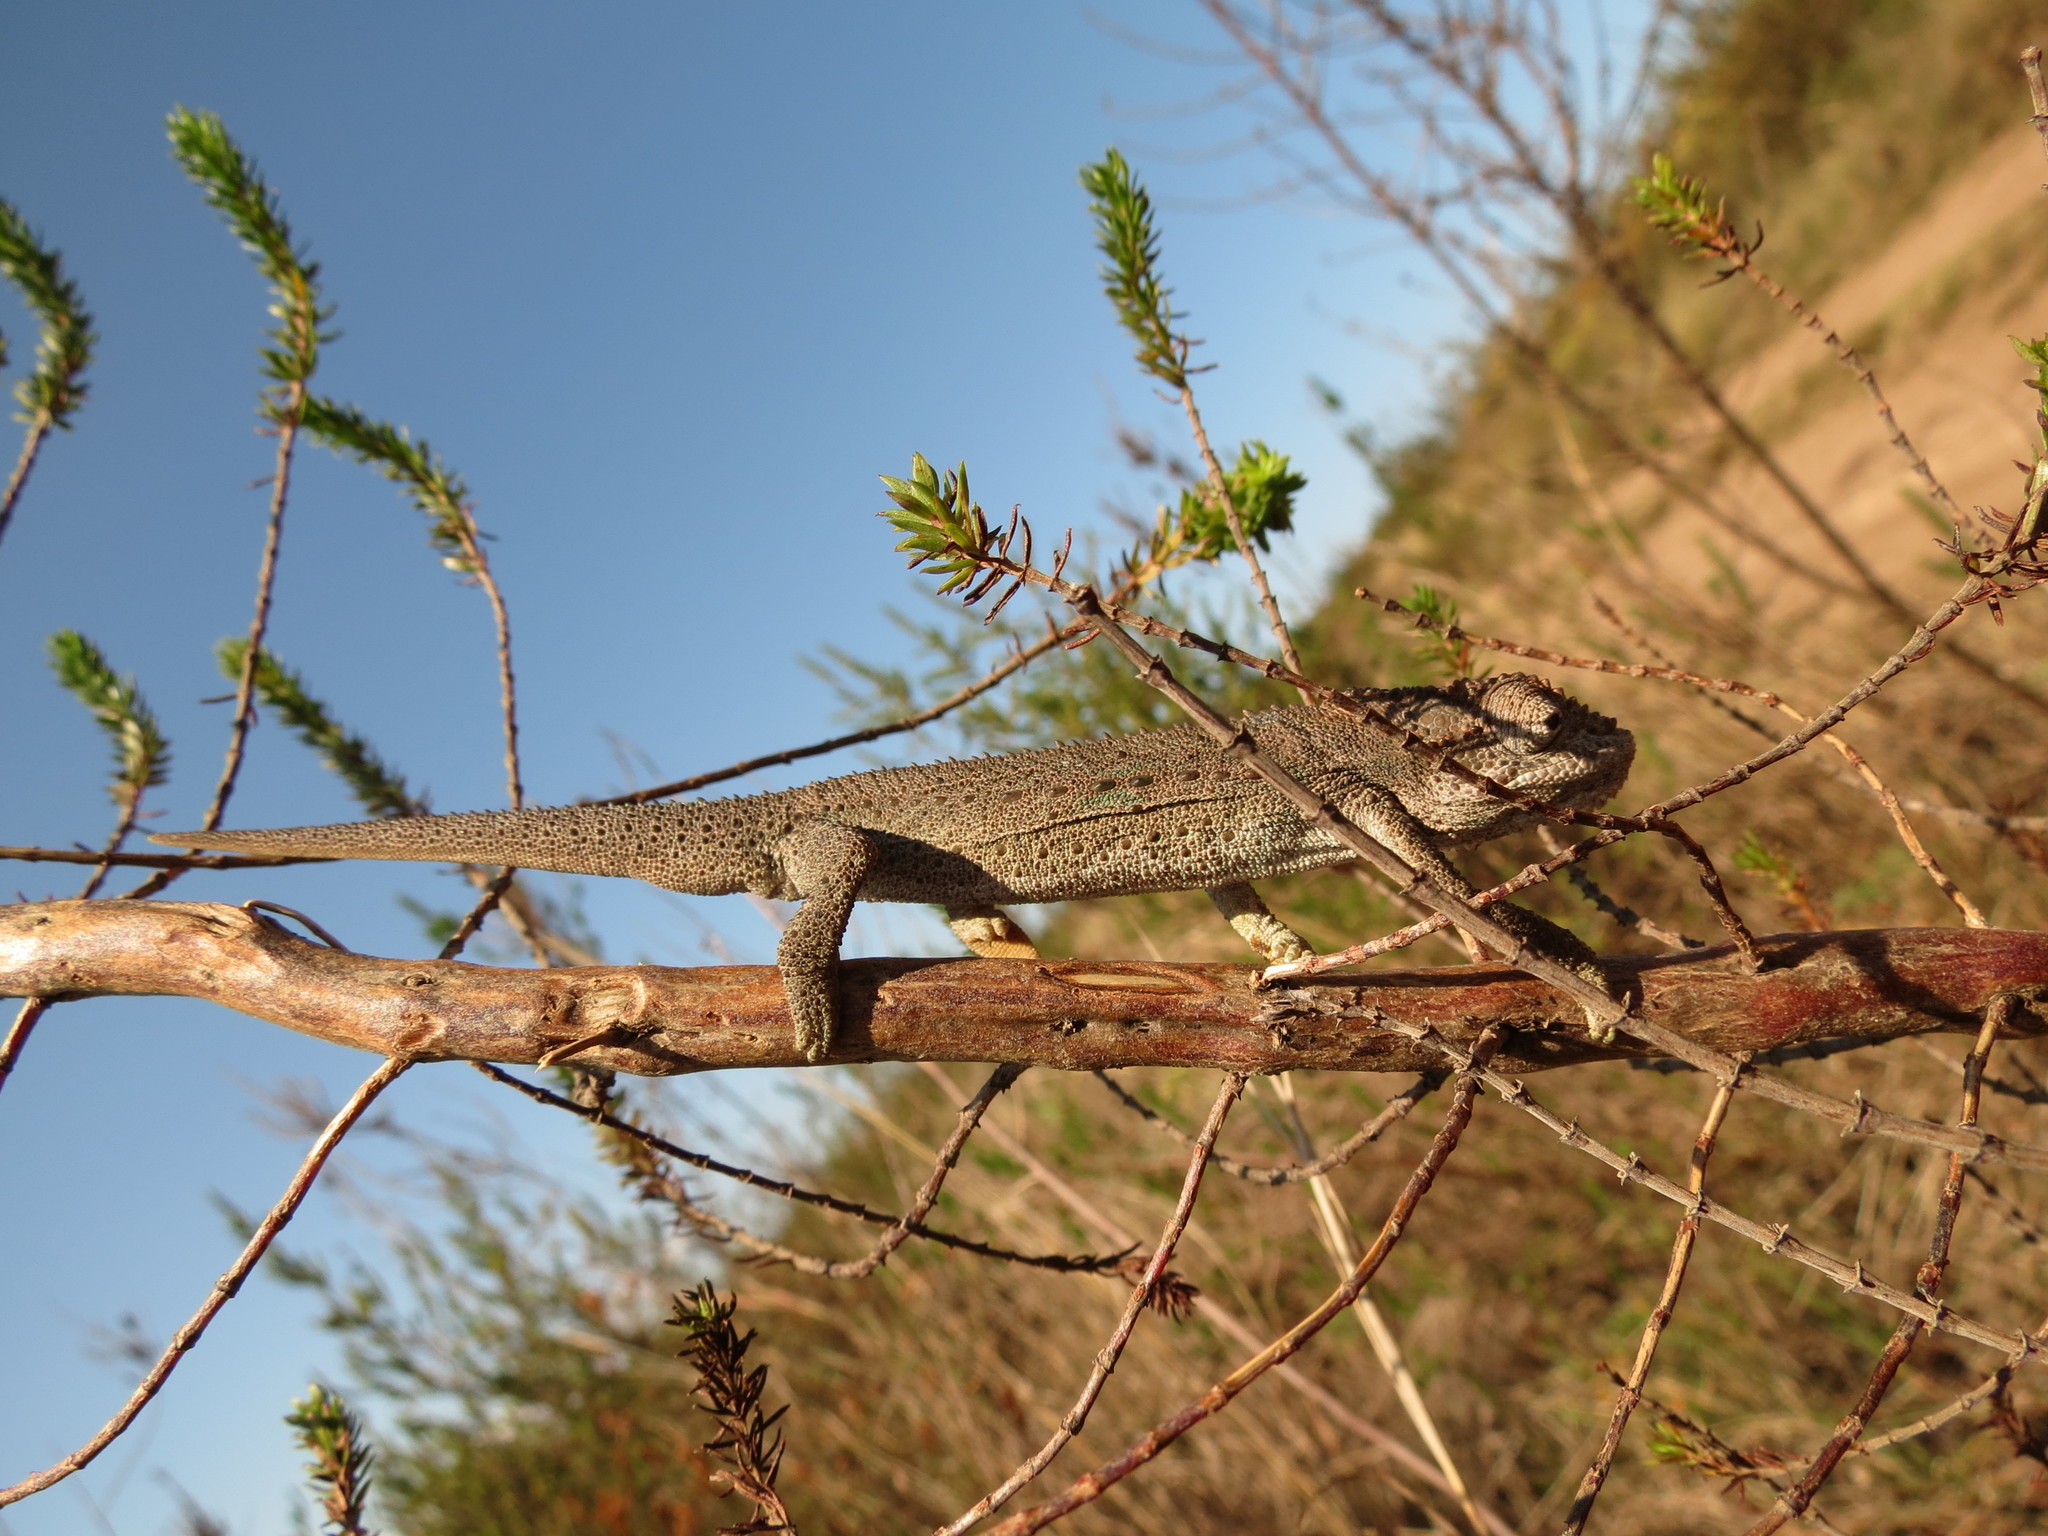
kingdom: Animalia
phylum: Chordata
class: Squamata
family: Chamaeleonidae
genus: Bradypodion
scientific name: Bradypodion gutturale
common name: Little karoo dwarf chameleon
